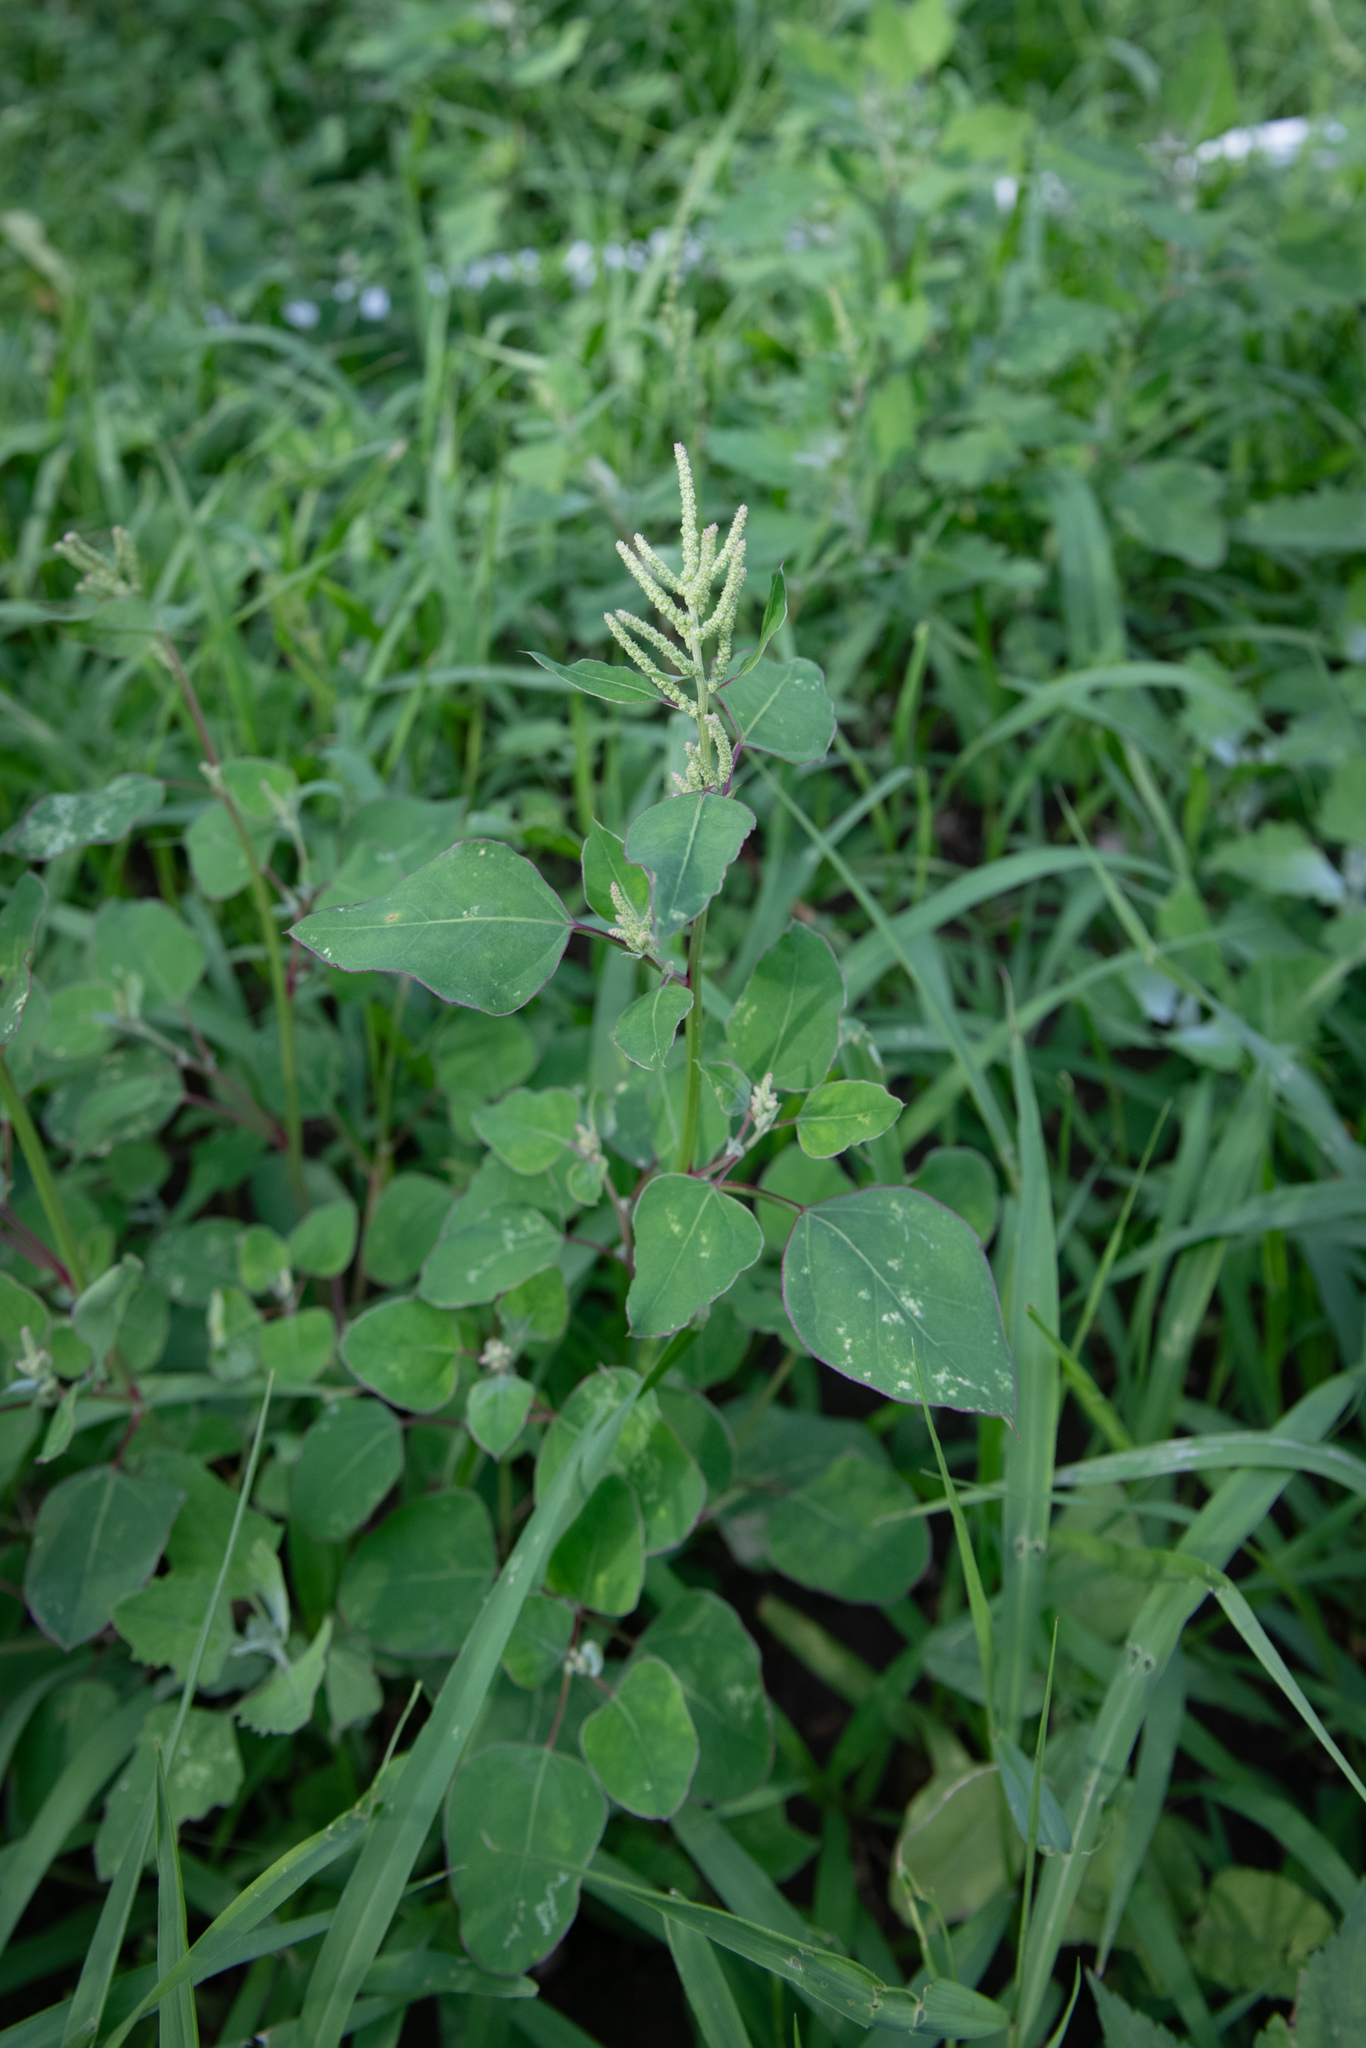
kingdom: Plantae
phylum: Tracheophyta
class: Magnoliopsida
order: Caryophyllales
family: Amaranthaceae
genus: Chenopodium
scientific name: Chenopodium acuminatum
